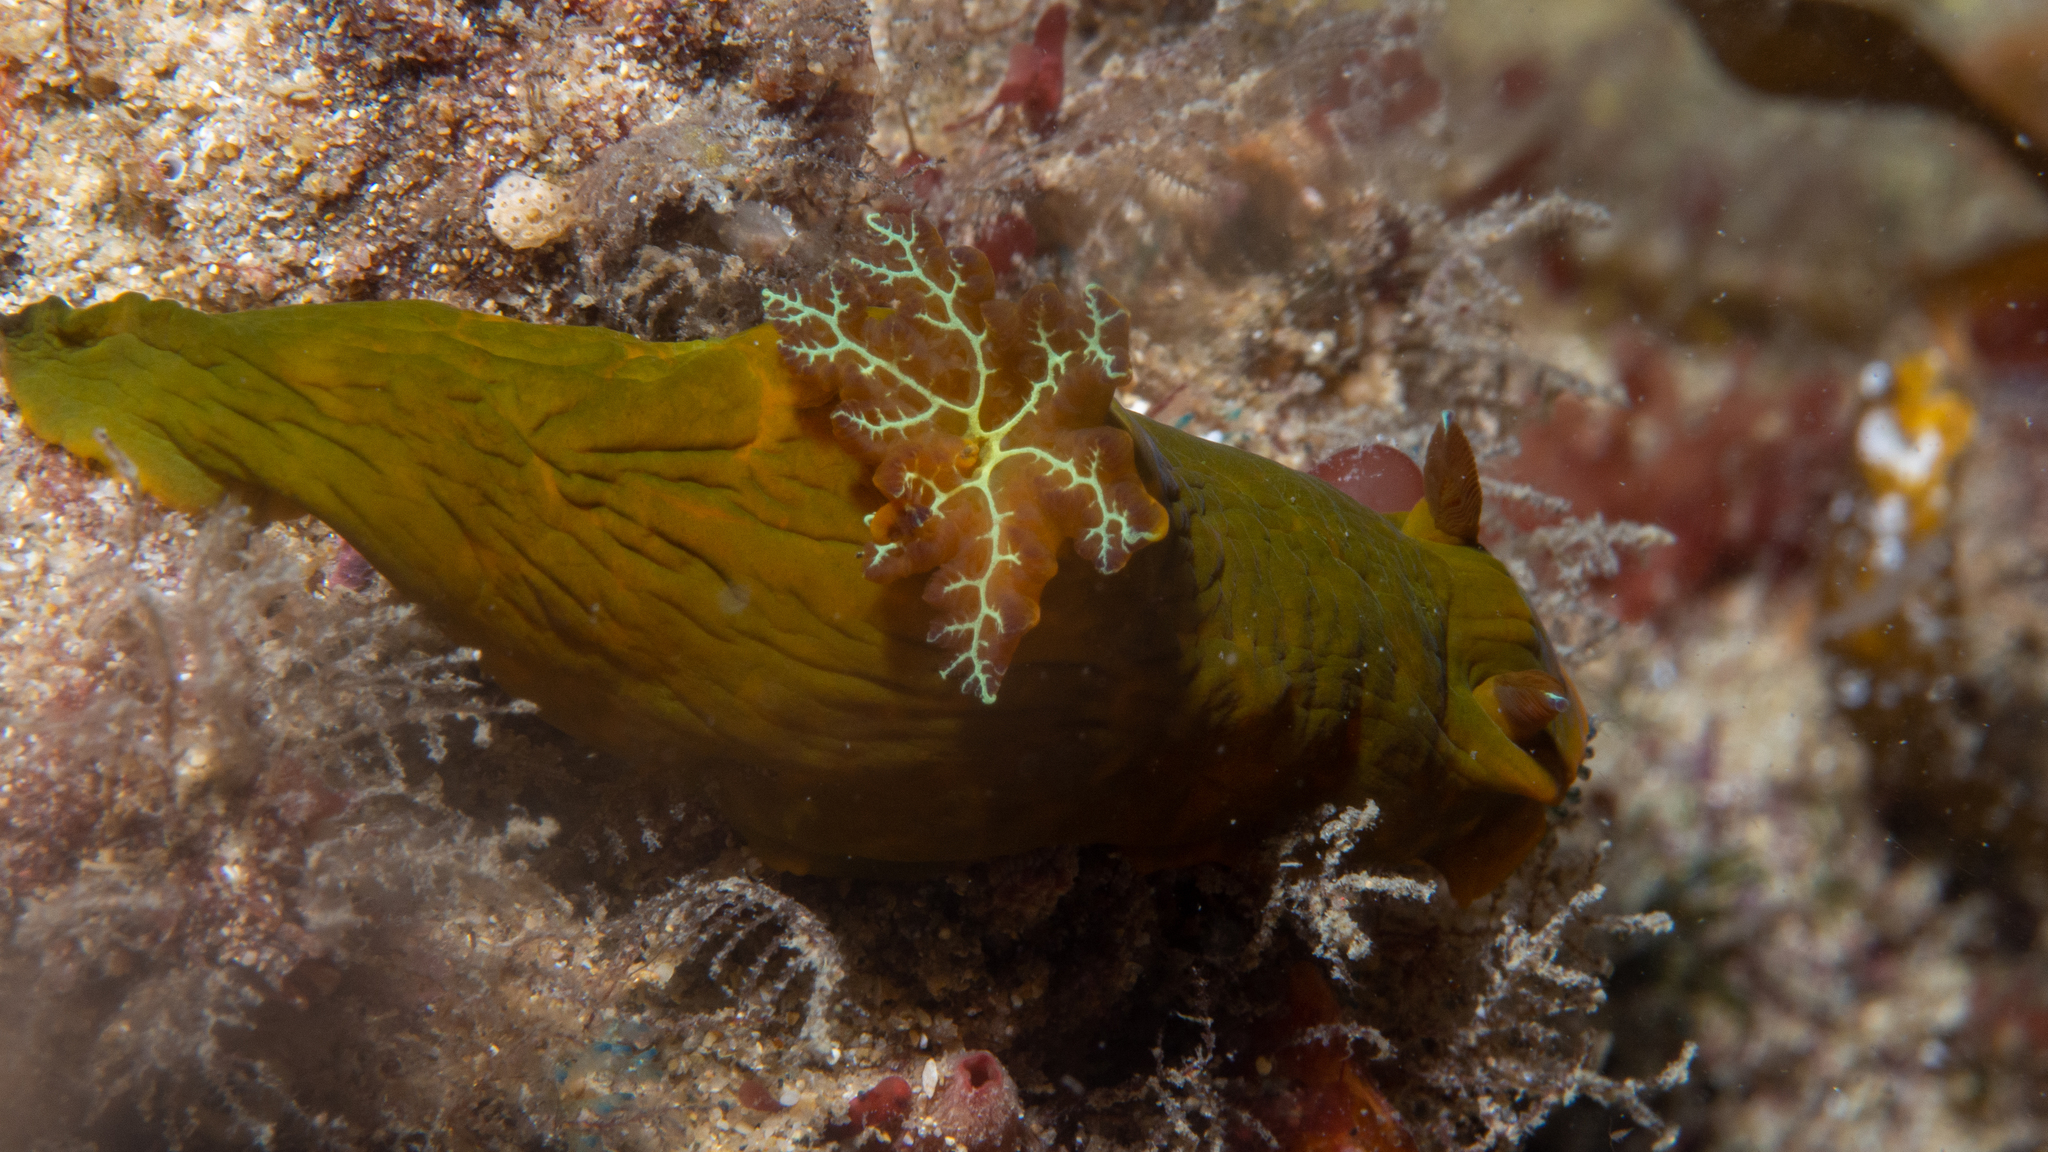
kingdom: Animalia
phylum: Mollusca
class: Gastropoda
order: Nudibranchia
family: Polyceridae
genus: Tambja
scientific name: Tambja dracomus
